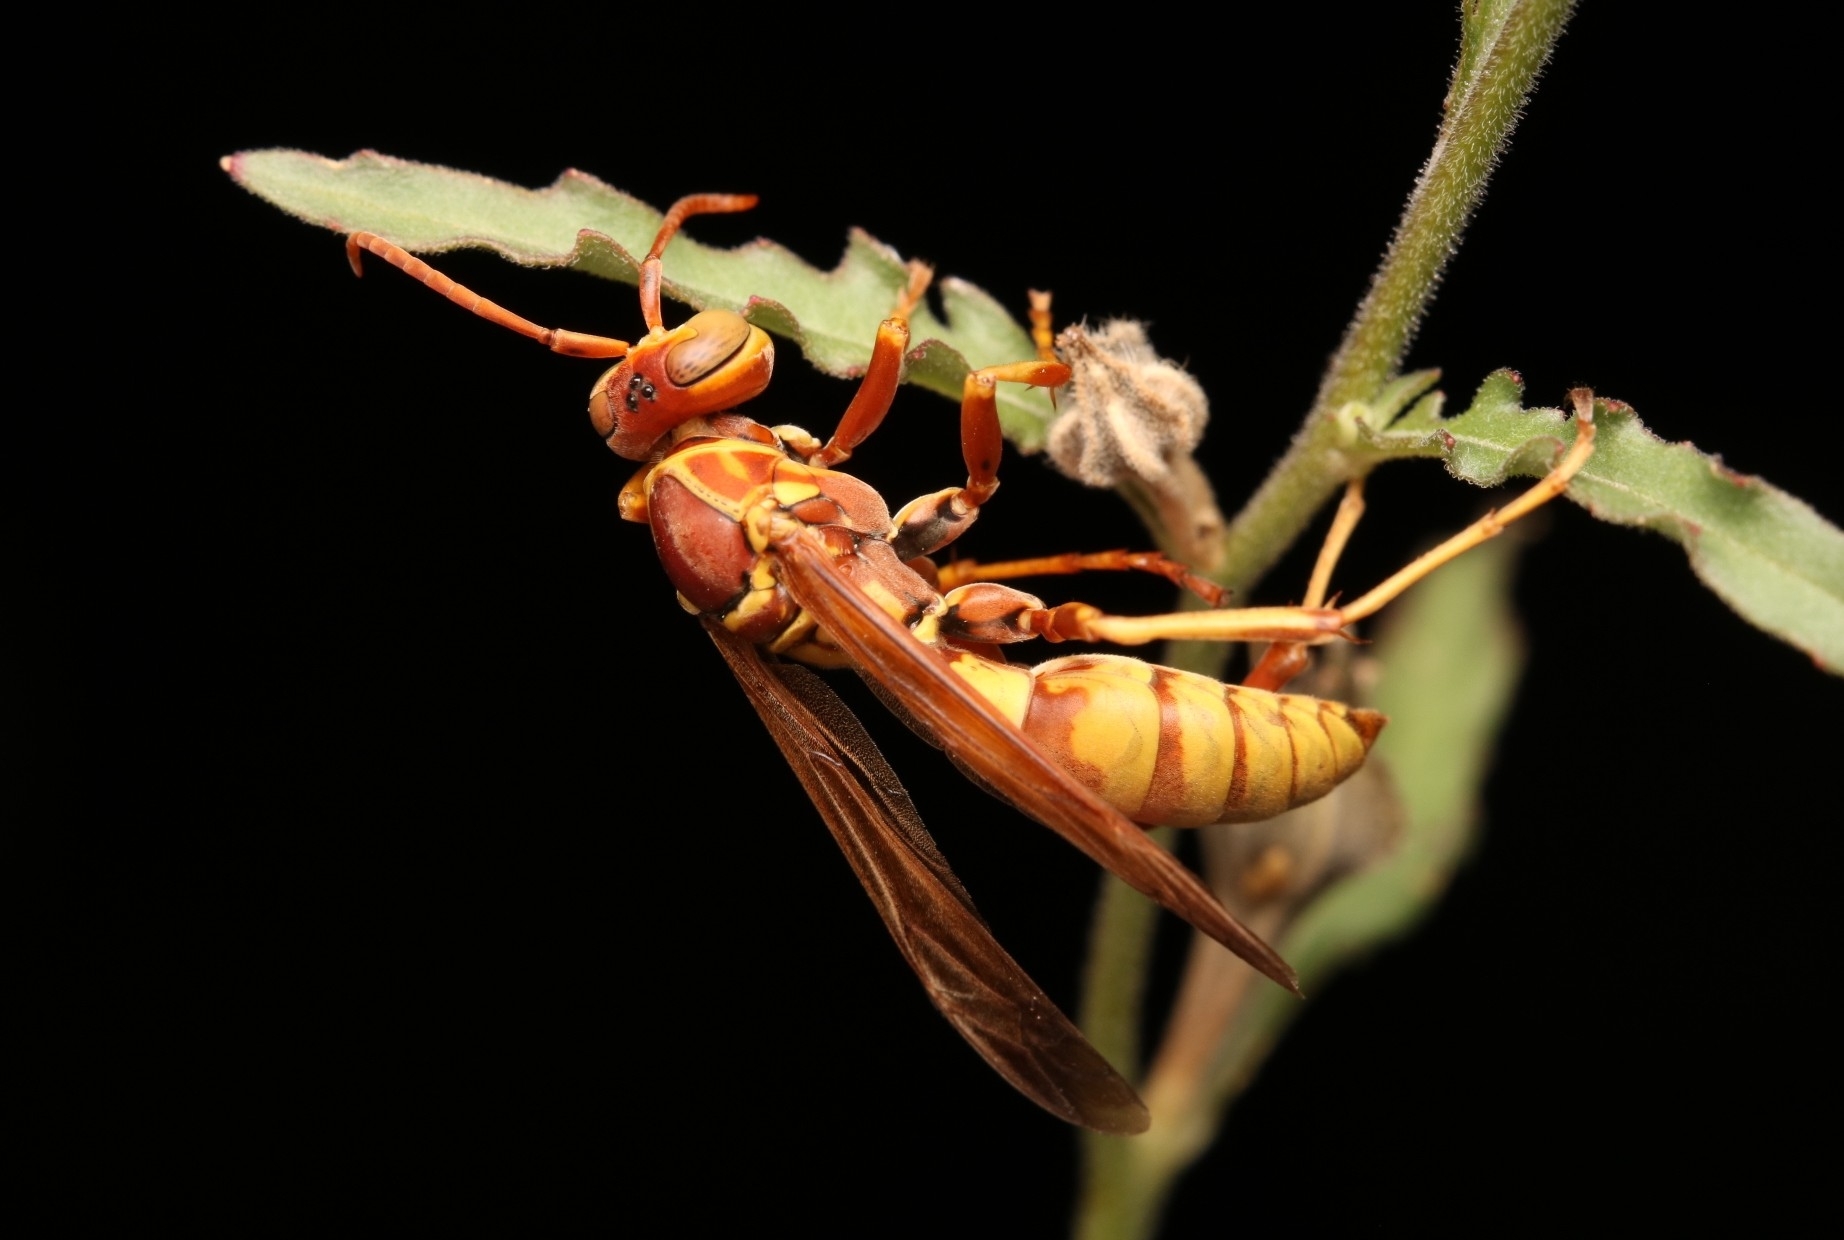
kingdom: Animalia
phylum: Arthropoda
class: Insecta
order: Hymenoptera
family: Eumenidae
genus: Polistes
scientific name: Polistes dorsalis
